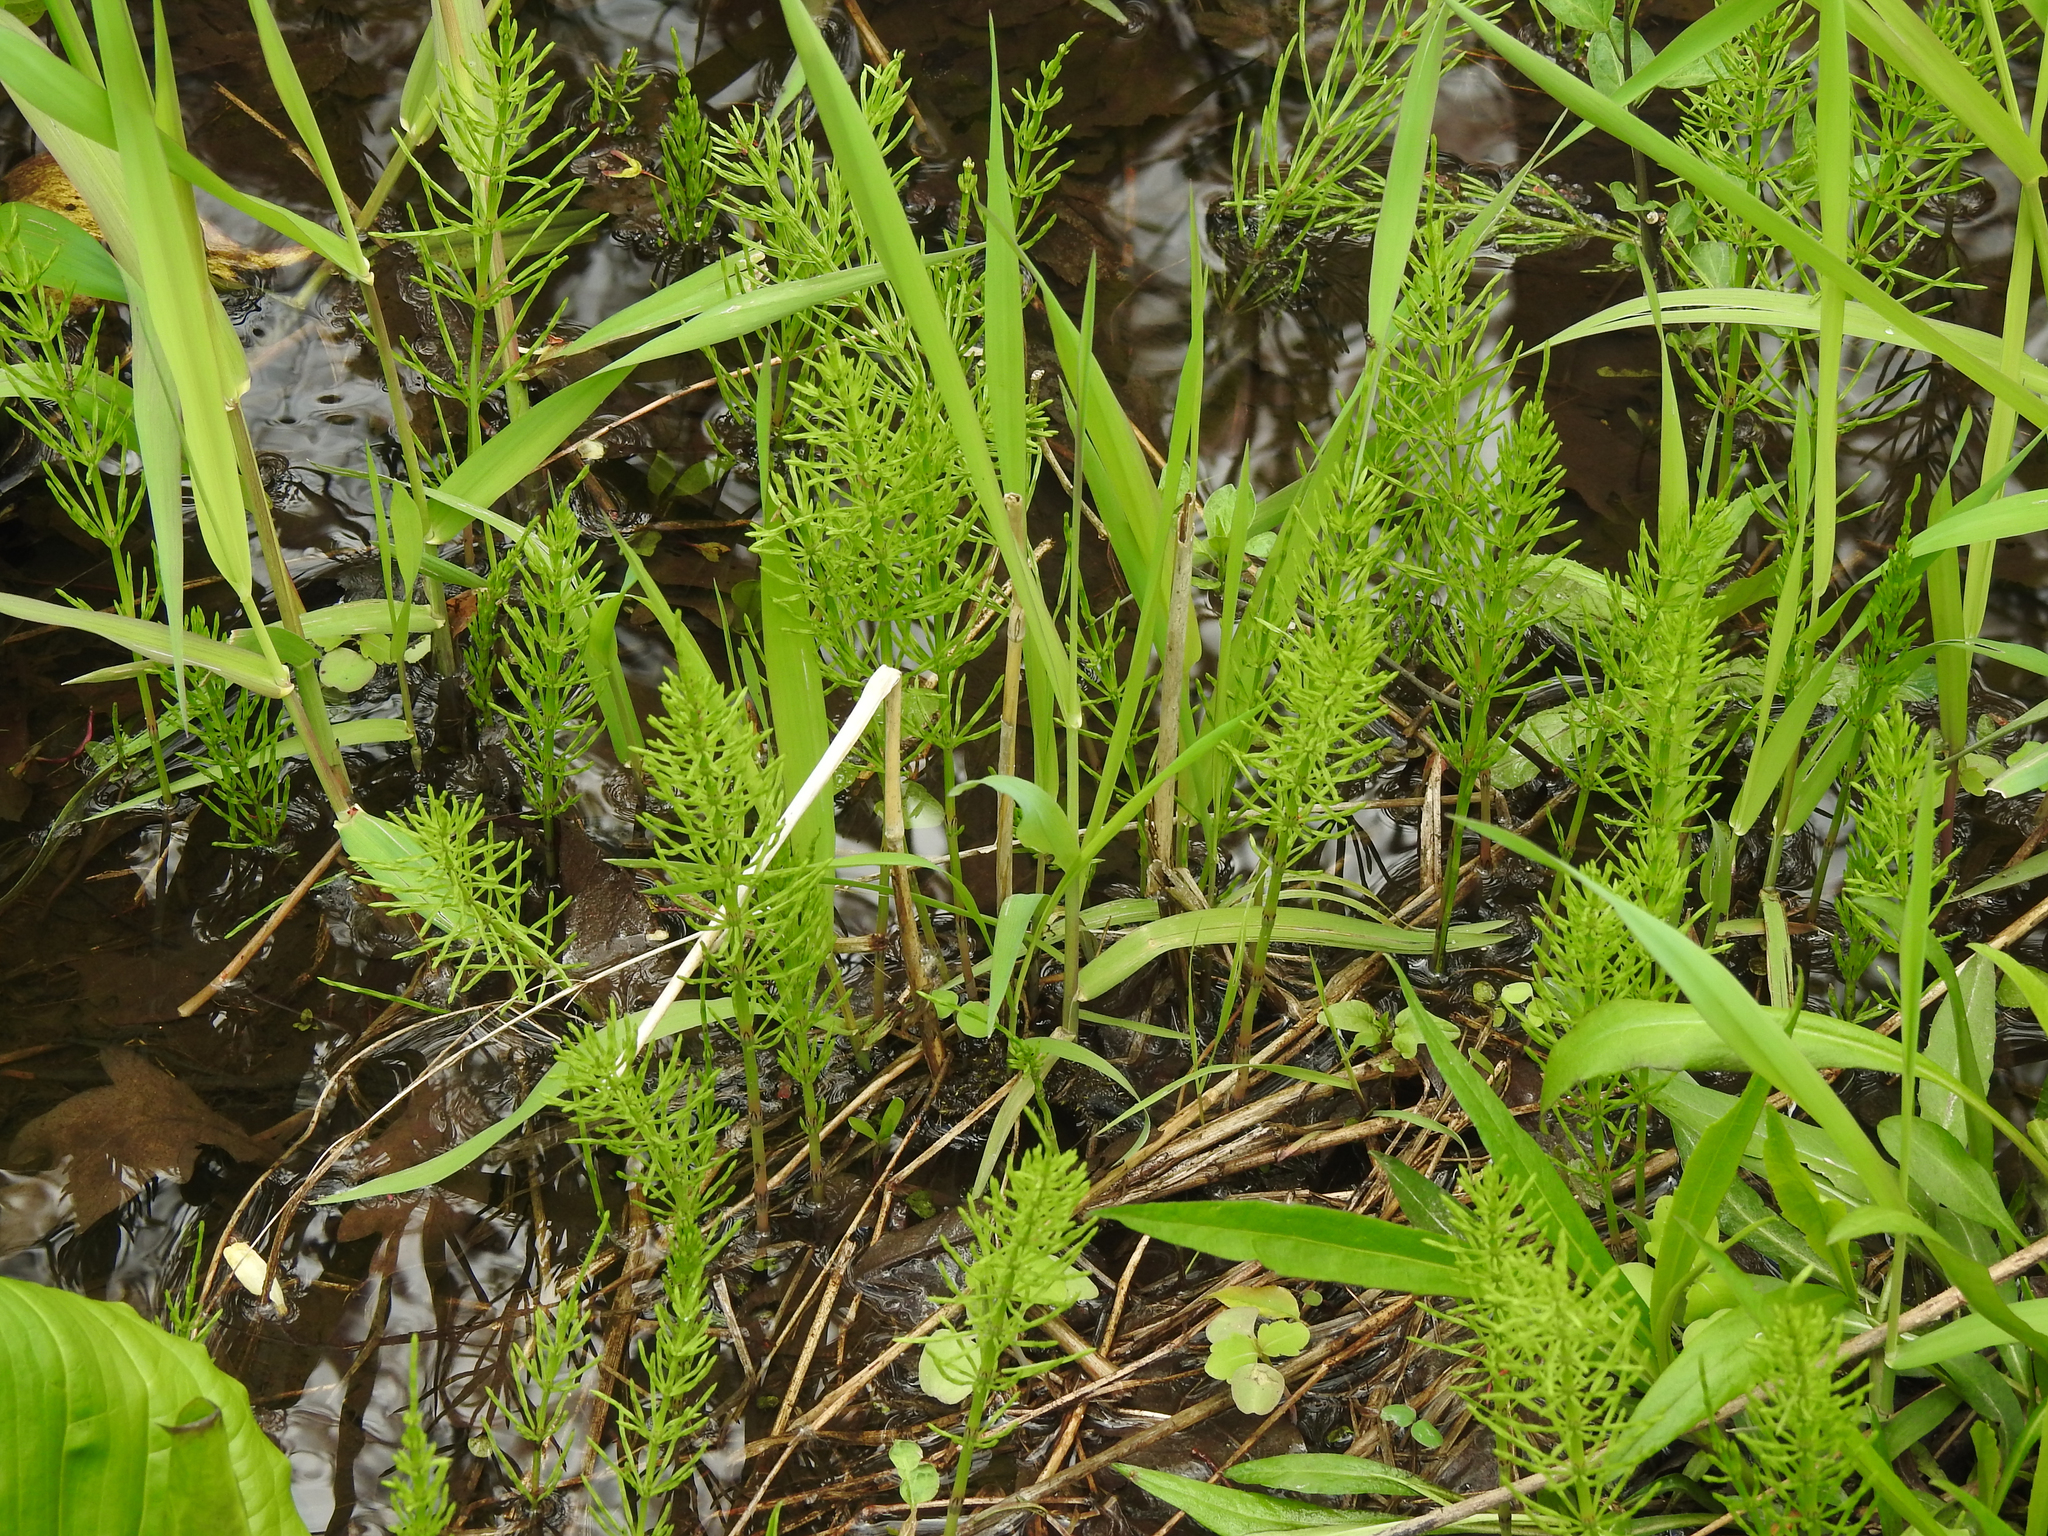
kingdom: Plantae
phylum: Tracheophyta
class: Polypodiopsida
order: Equisetales
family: Equisetaceae
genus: Equisetum
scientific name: Equisetum arvense
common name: Field horsetail
